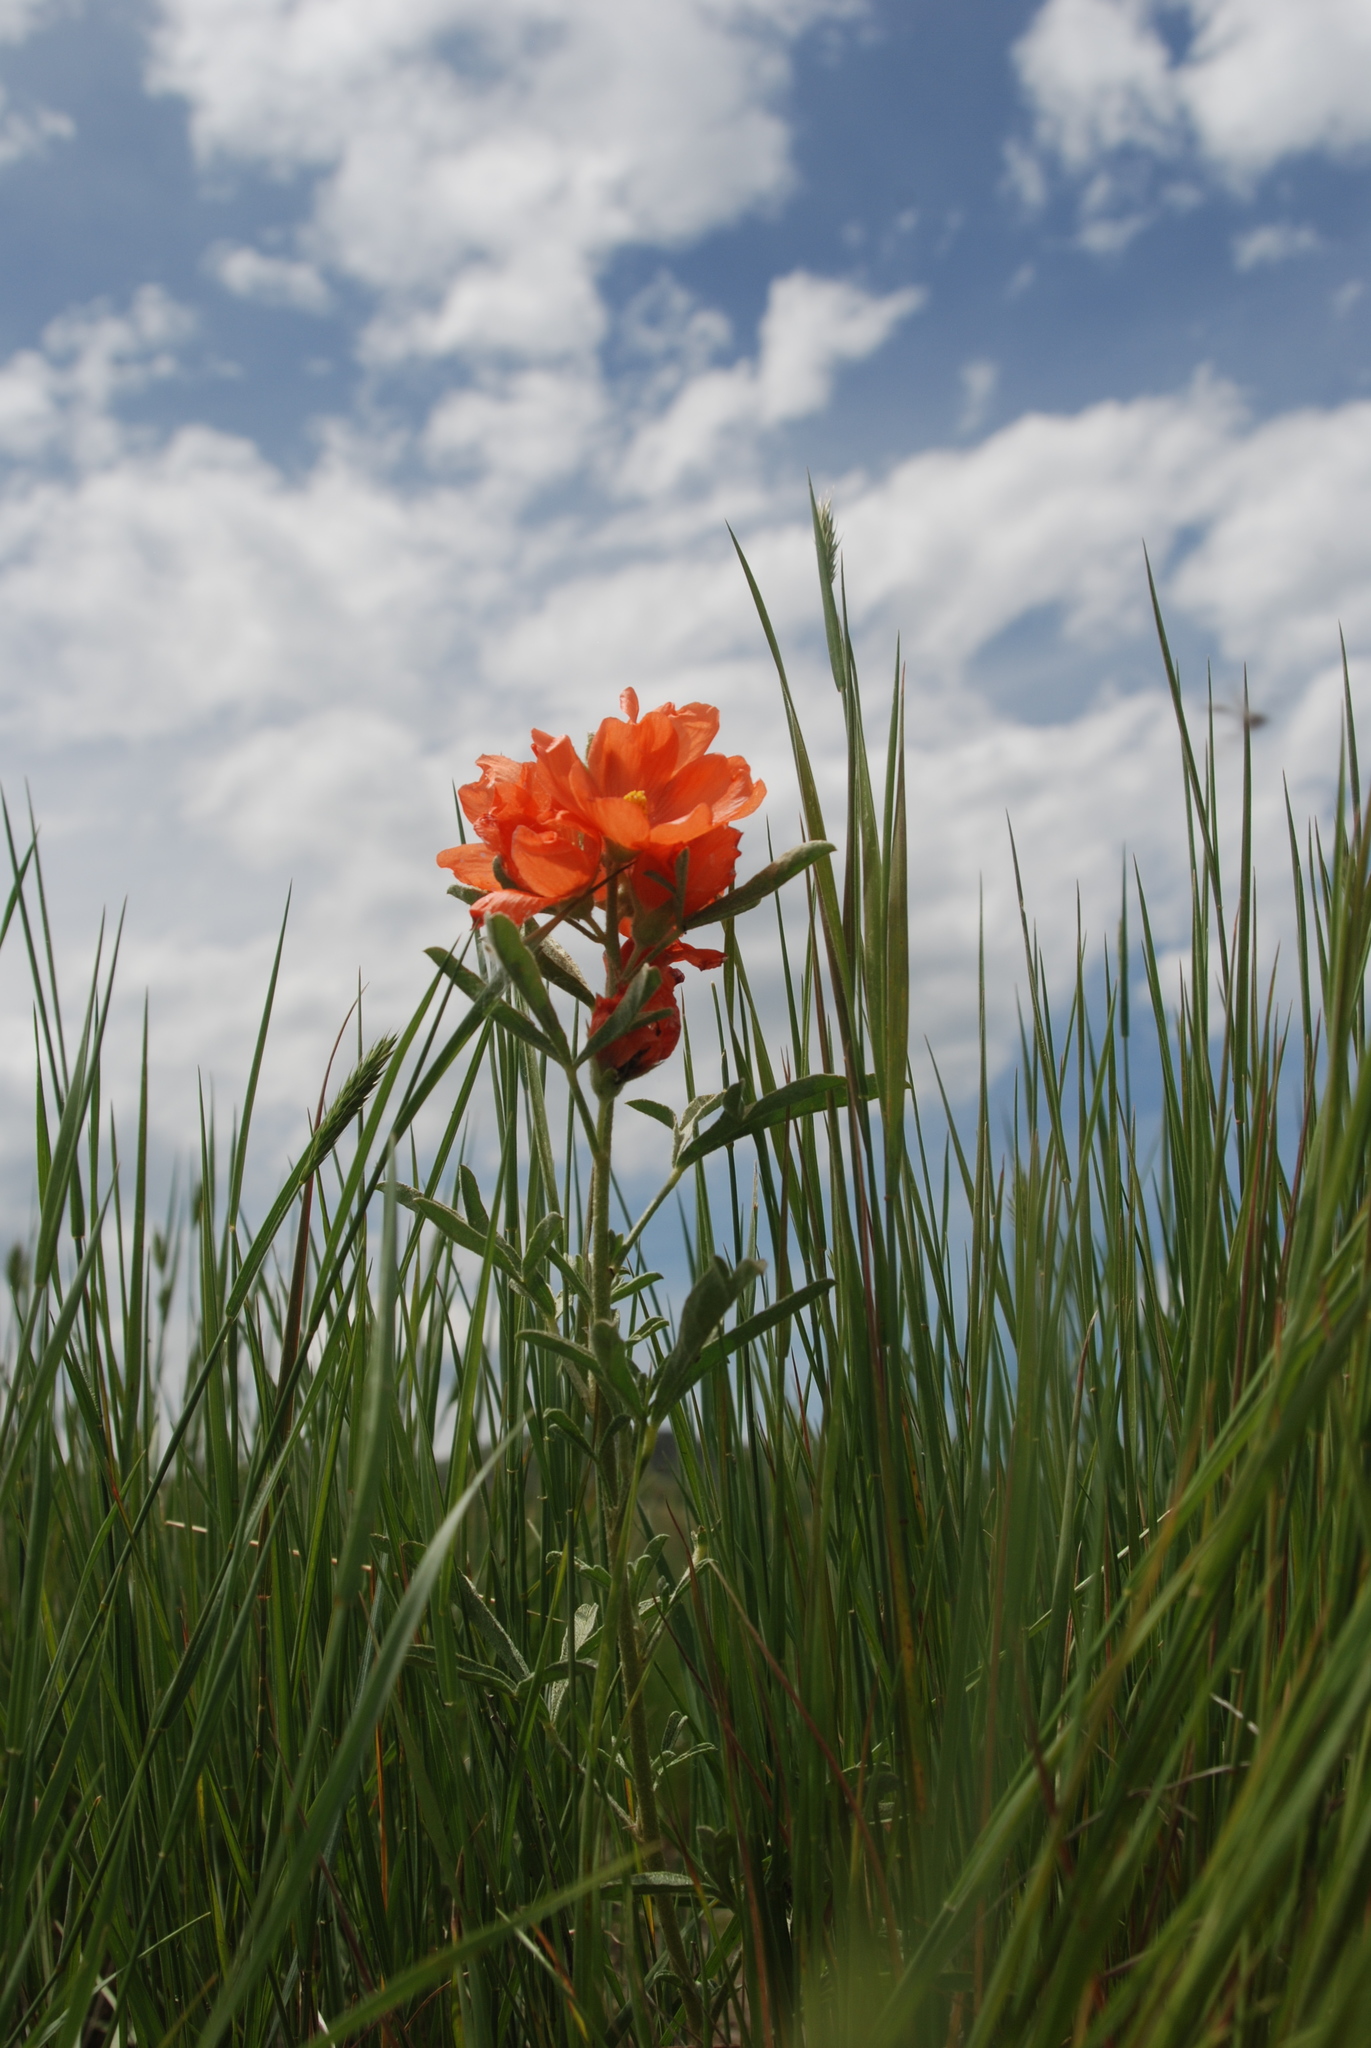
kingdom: Plantae
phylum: Tracheophyta
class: Magnoliopsida
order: Malvales
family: Malvaceae
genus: Sphaeralcea
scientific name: Sphaeralcea coccinea
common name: Moss-rose
